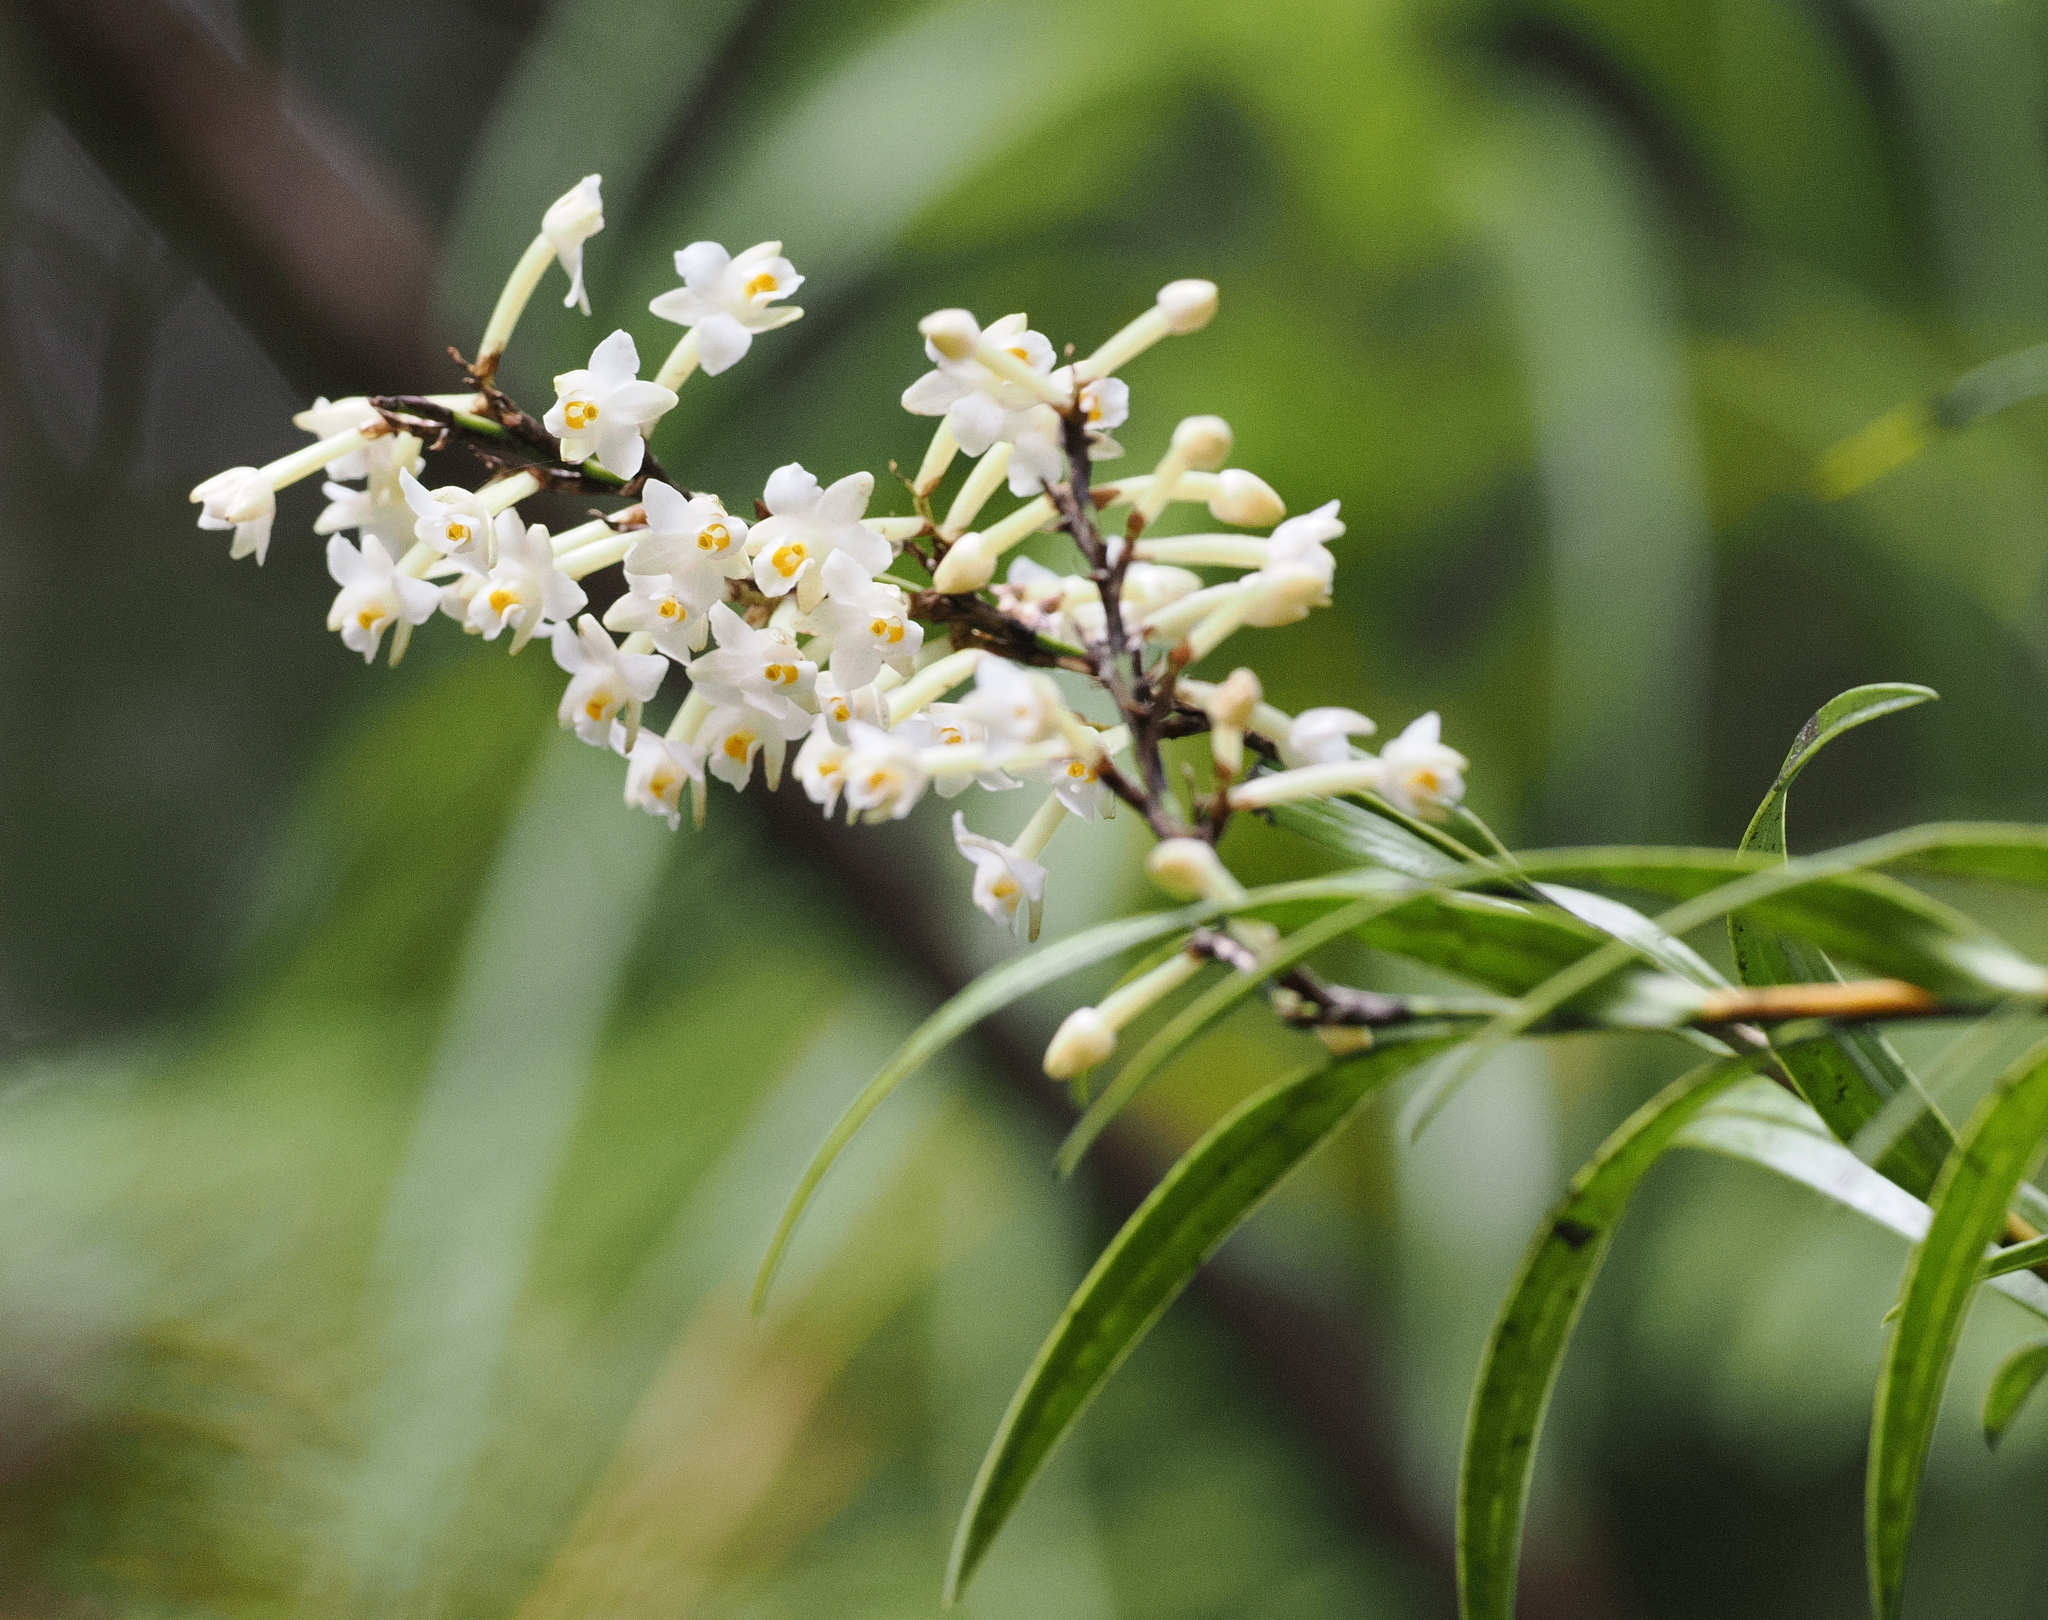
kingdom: Plantae
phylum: Tracheophyta
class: Liliopsida
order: Asparagales
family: Orchidaceae
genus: Earina
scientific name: Earina autumnalis
